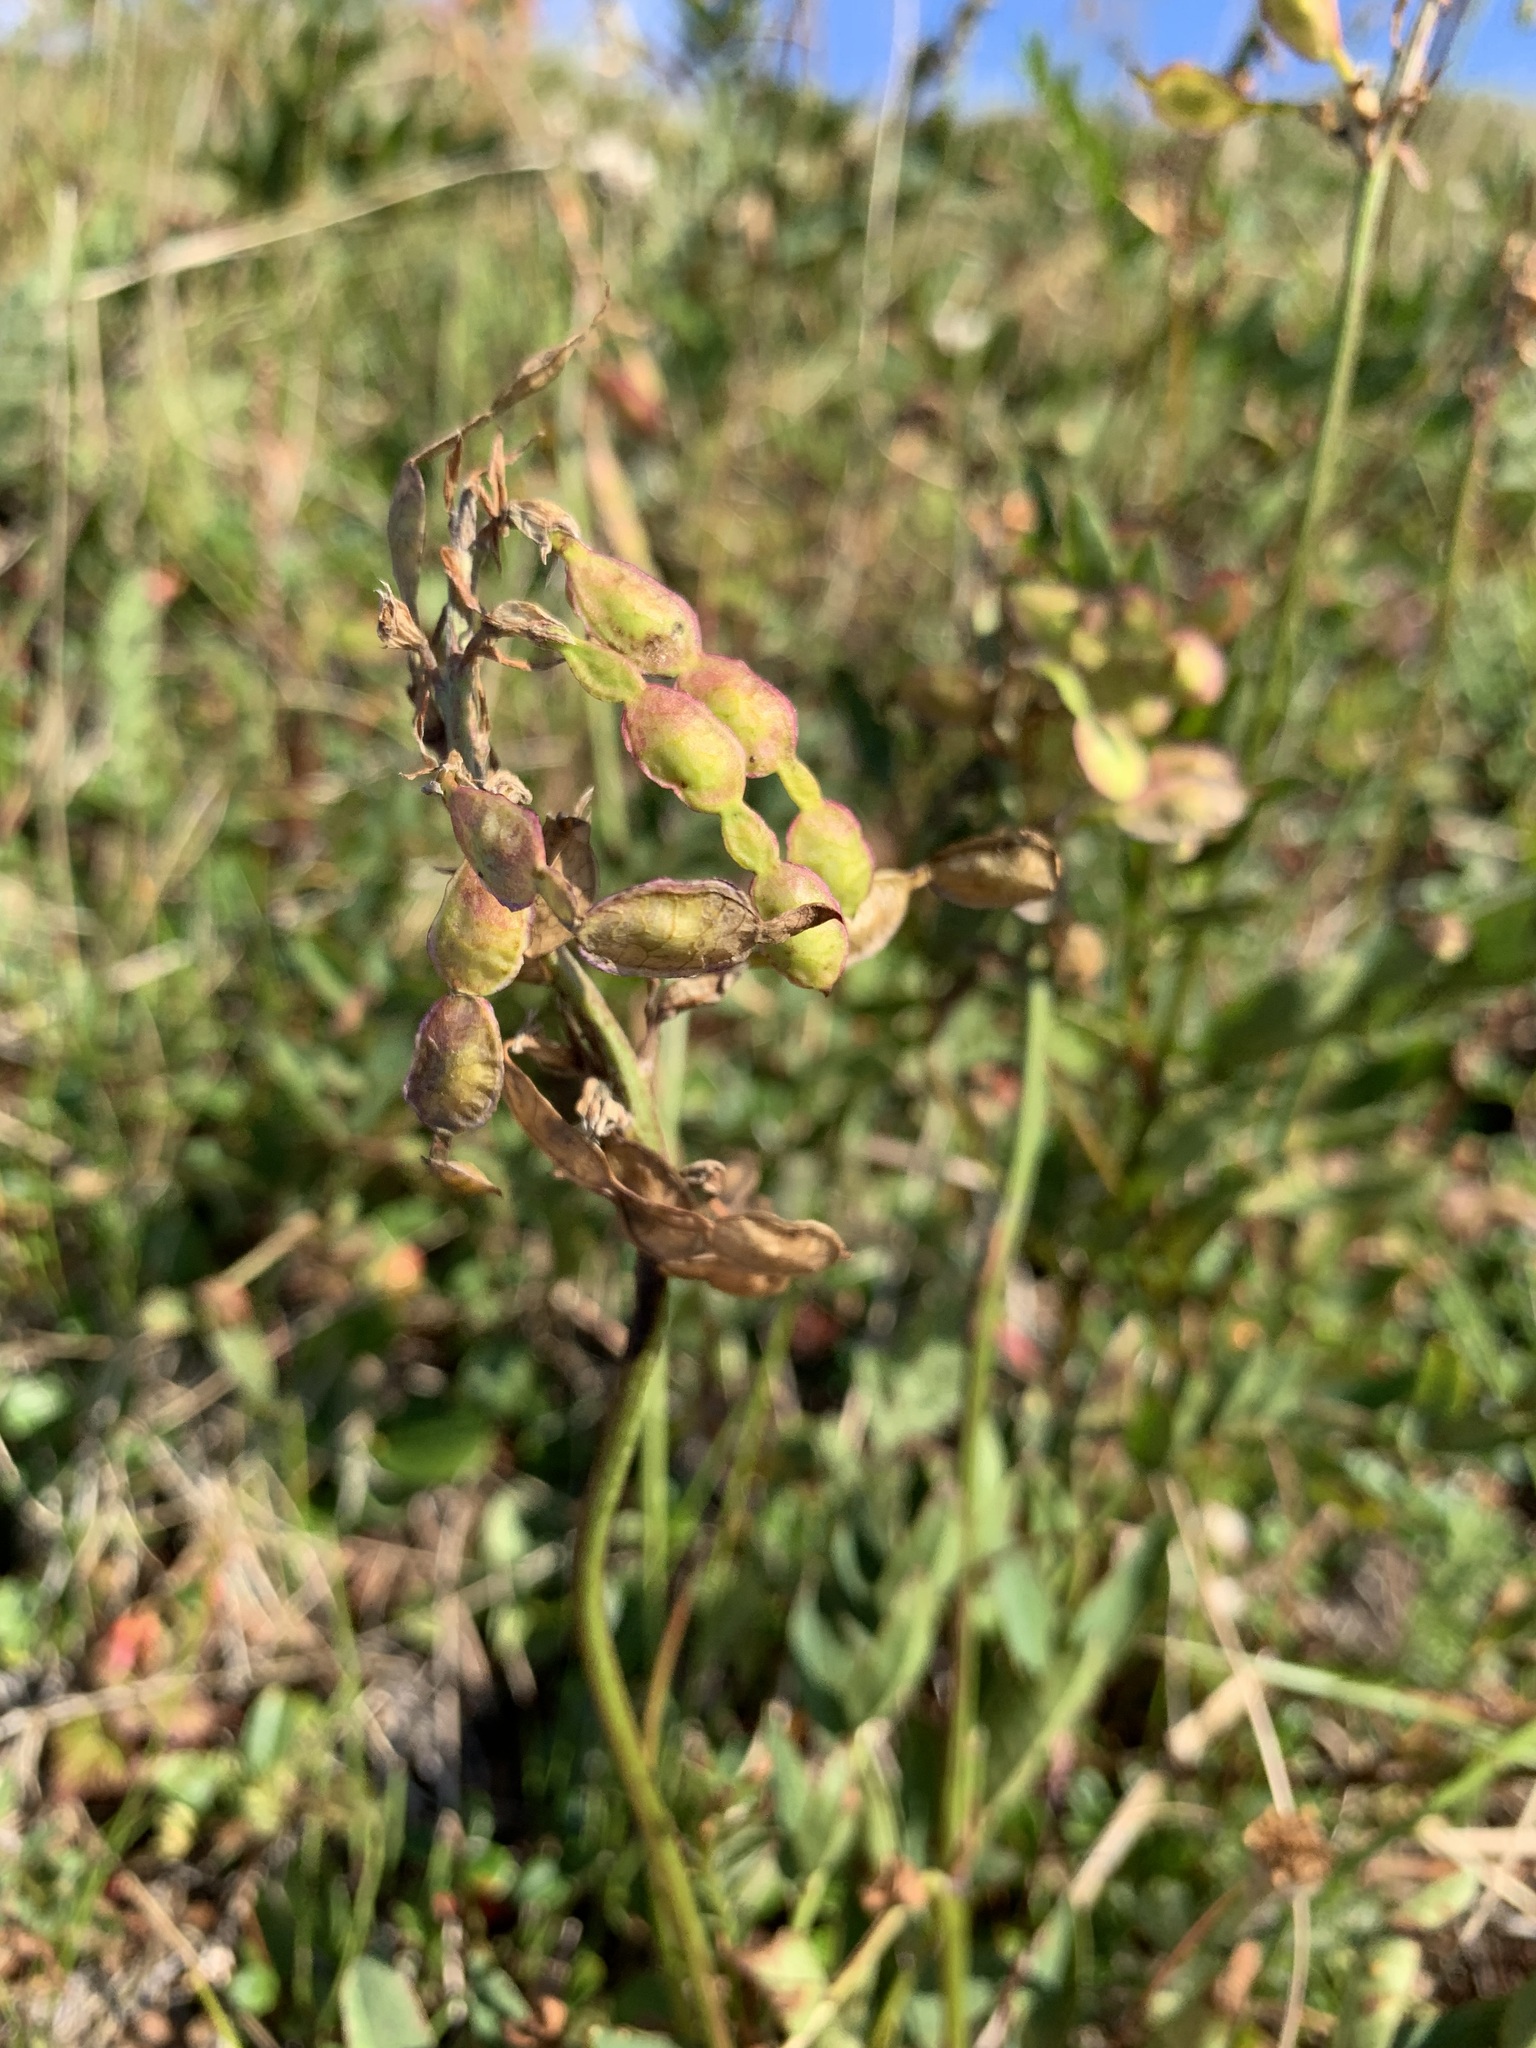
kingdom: Plantae
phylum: Tracheophyta
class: Magnoliopsida
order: Fabales
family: Fabaceae
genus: Hedysarum
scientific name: Hedysarum hedysaroides
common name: Alpine french-honeysuckle
